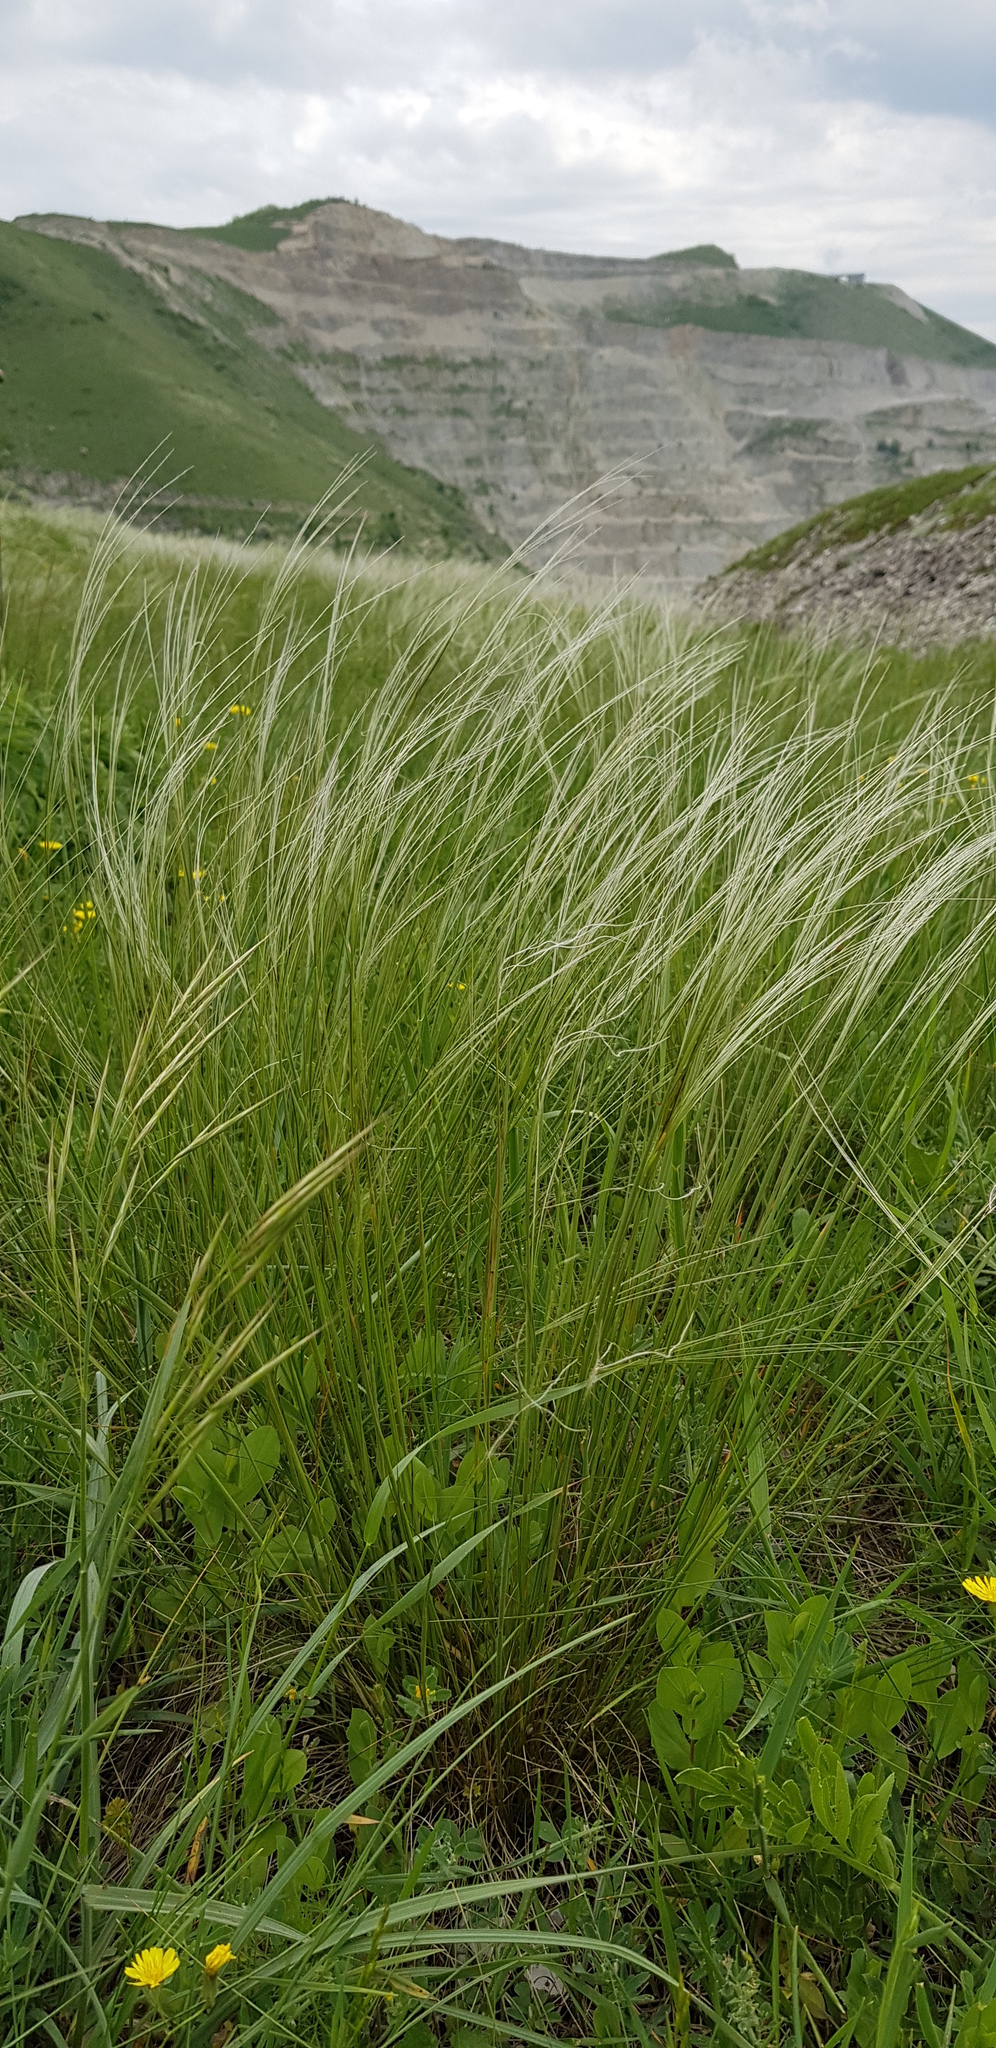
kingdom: Plantae
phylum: Tracheophyta
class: Liliopsida
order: Poales
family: Poaceae
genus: Stipa
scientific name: Stipa lessingiana
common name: Needle grass
